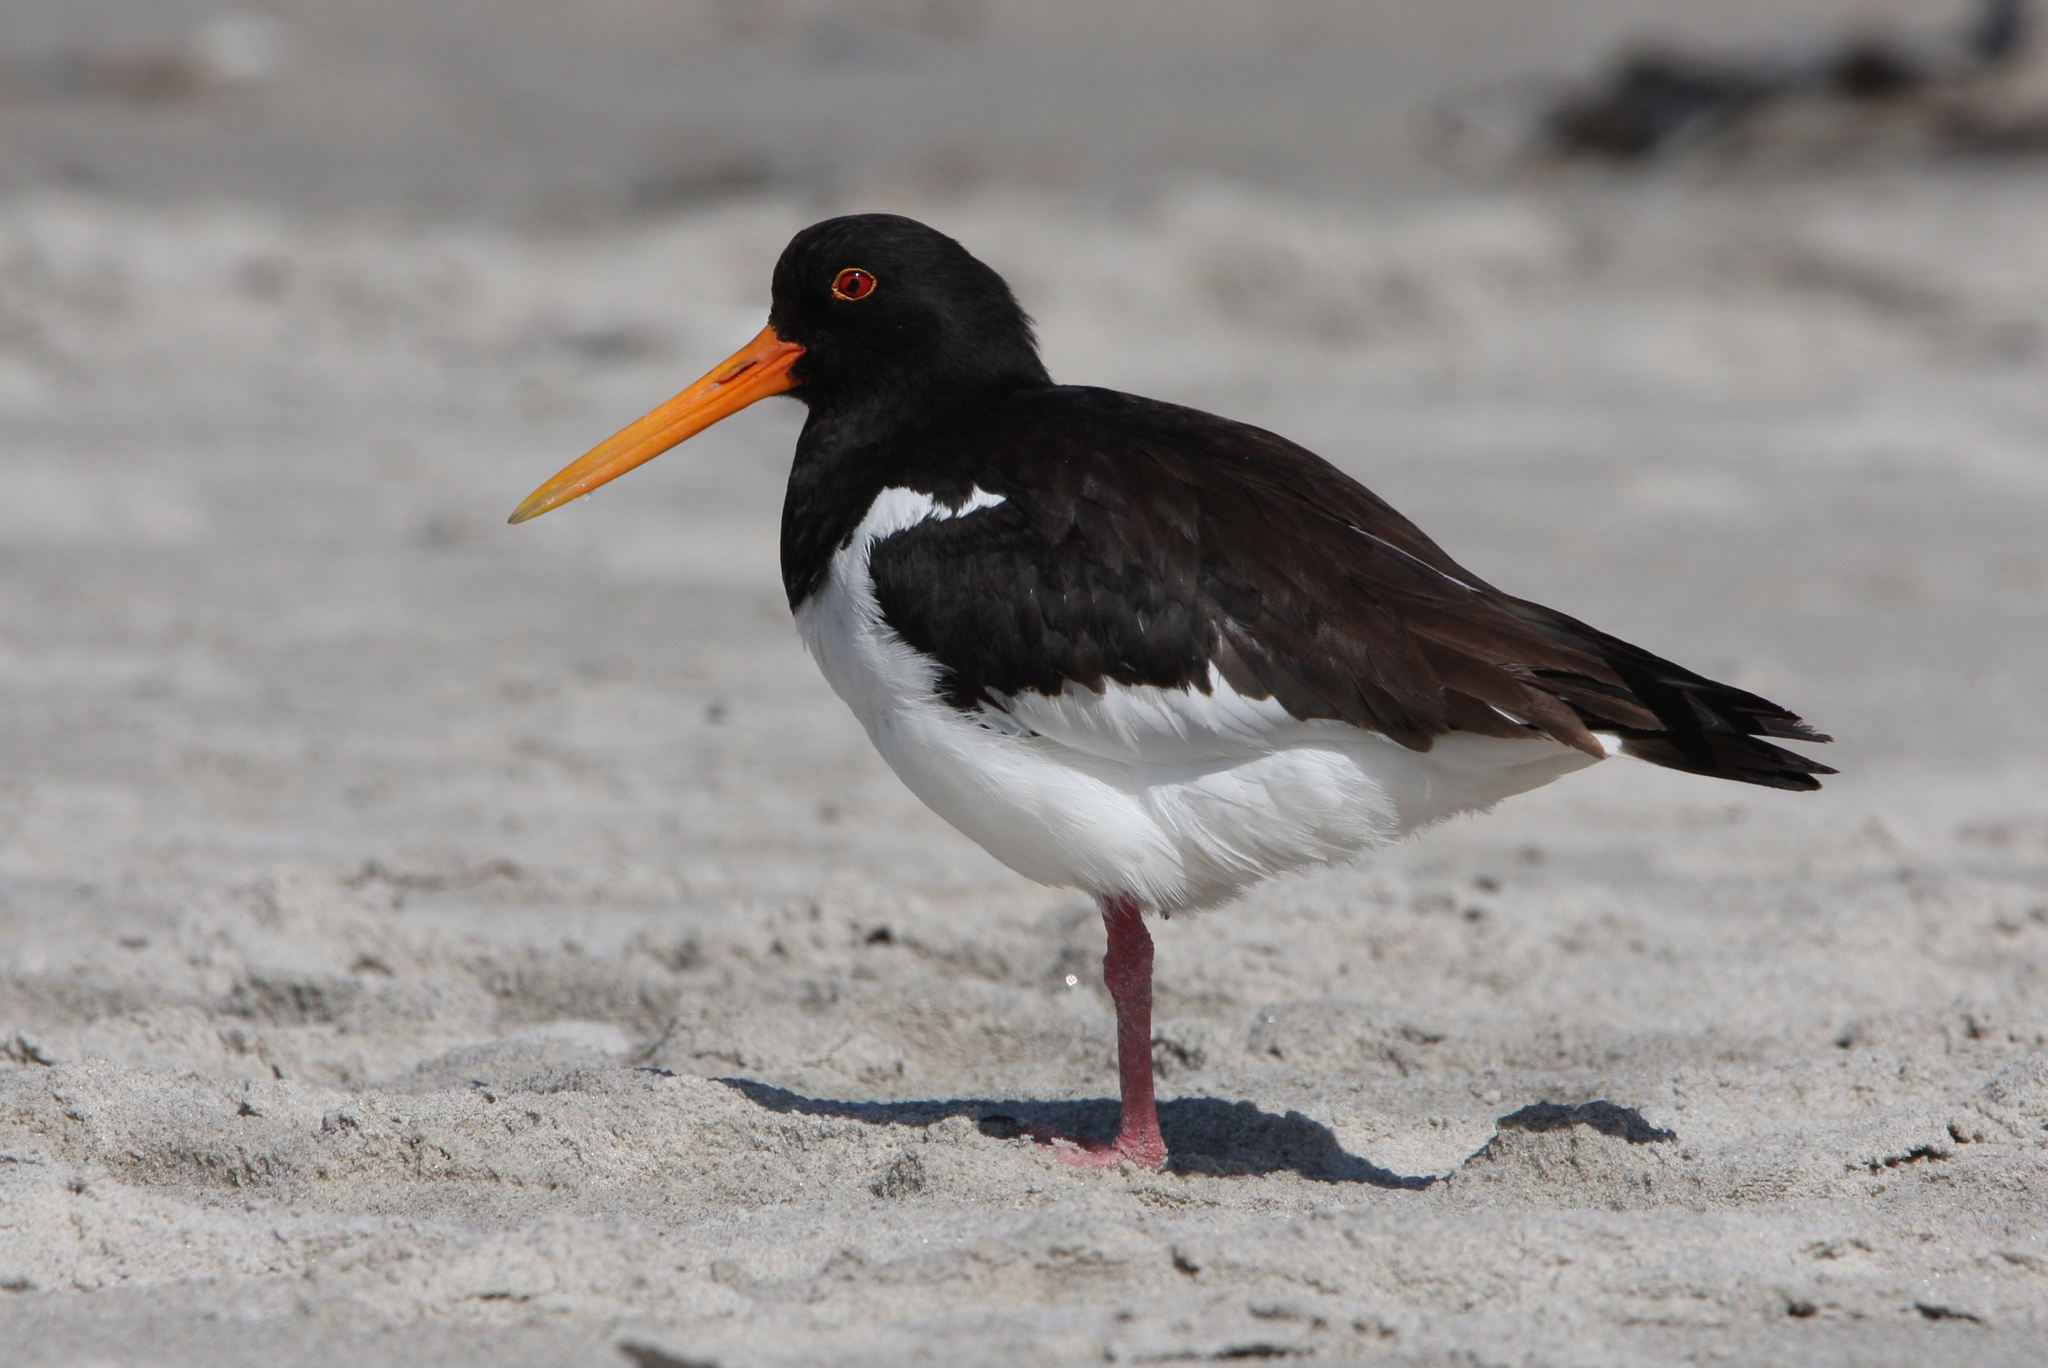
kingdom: Animalia
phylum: Chordata
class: Aves
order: Charadriiformes
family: Haematopodidae
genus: Haematopus
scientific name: Haematopus ostralegus
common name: Eurasian oystercatcher
